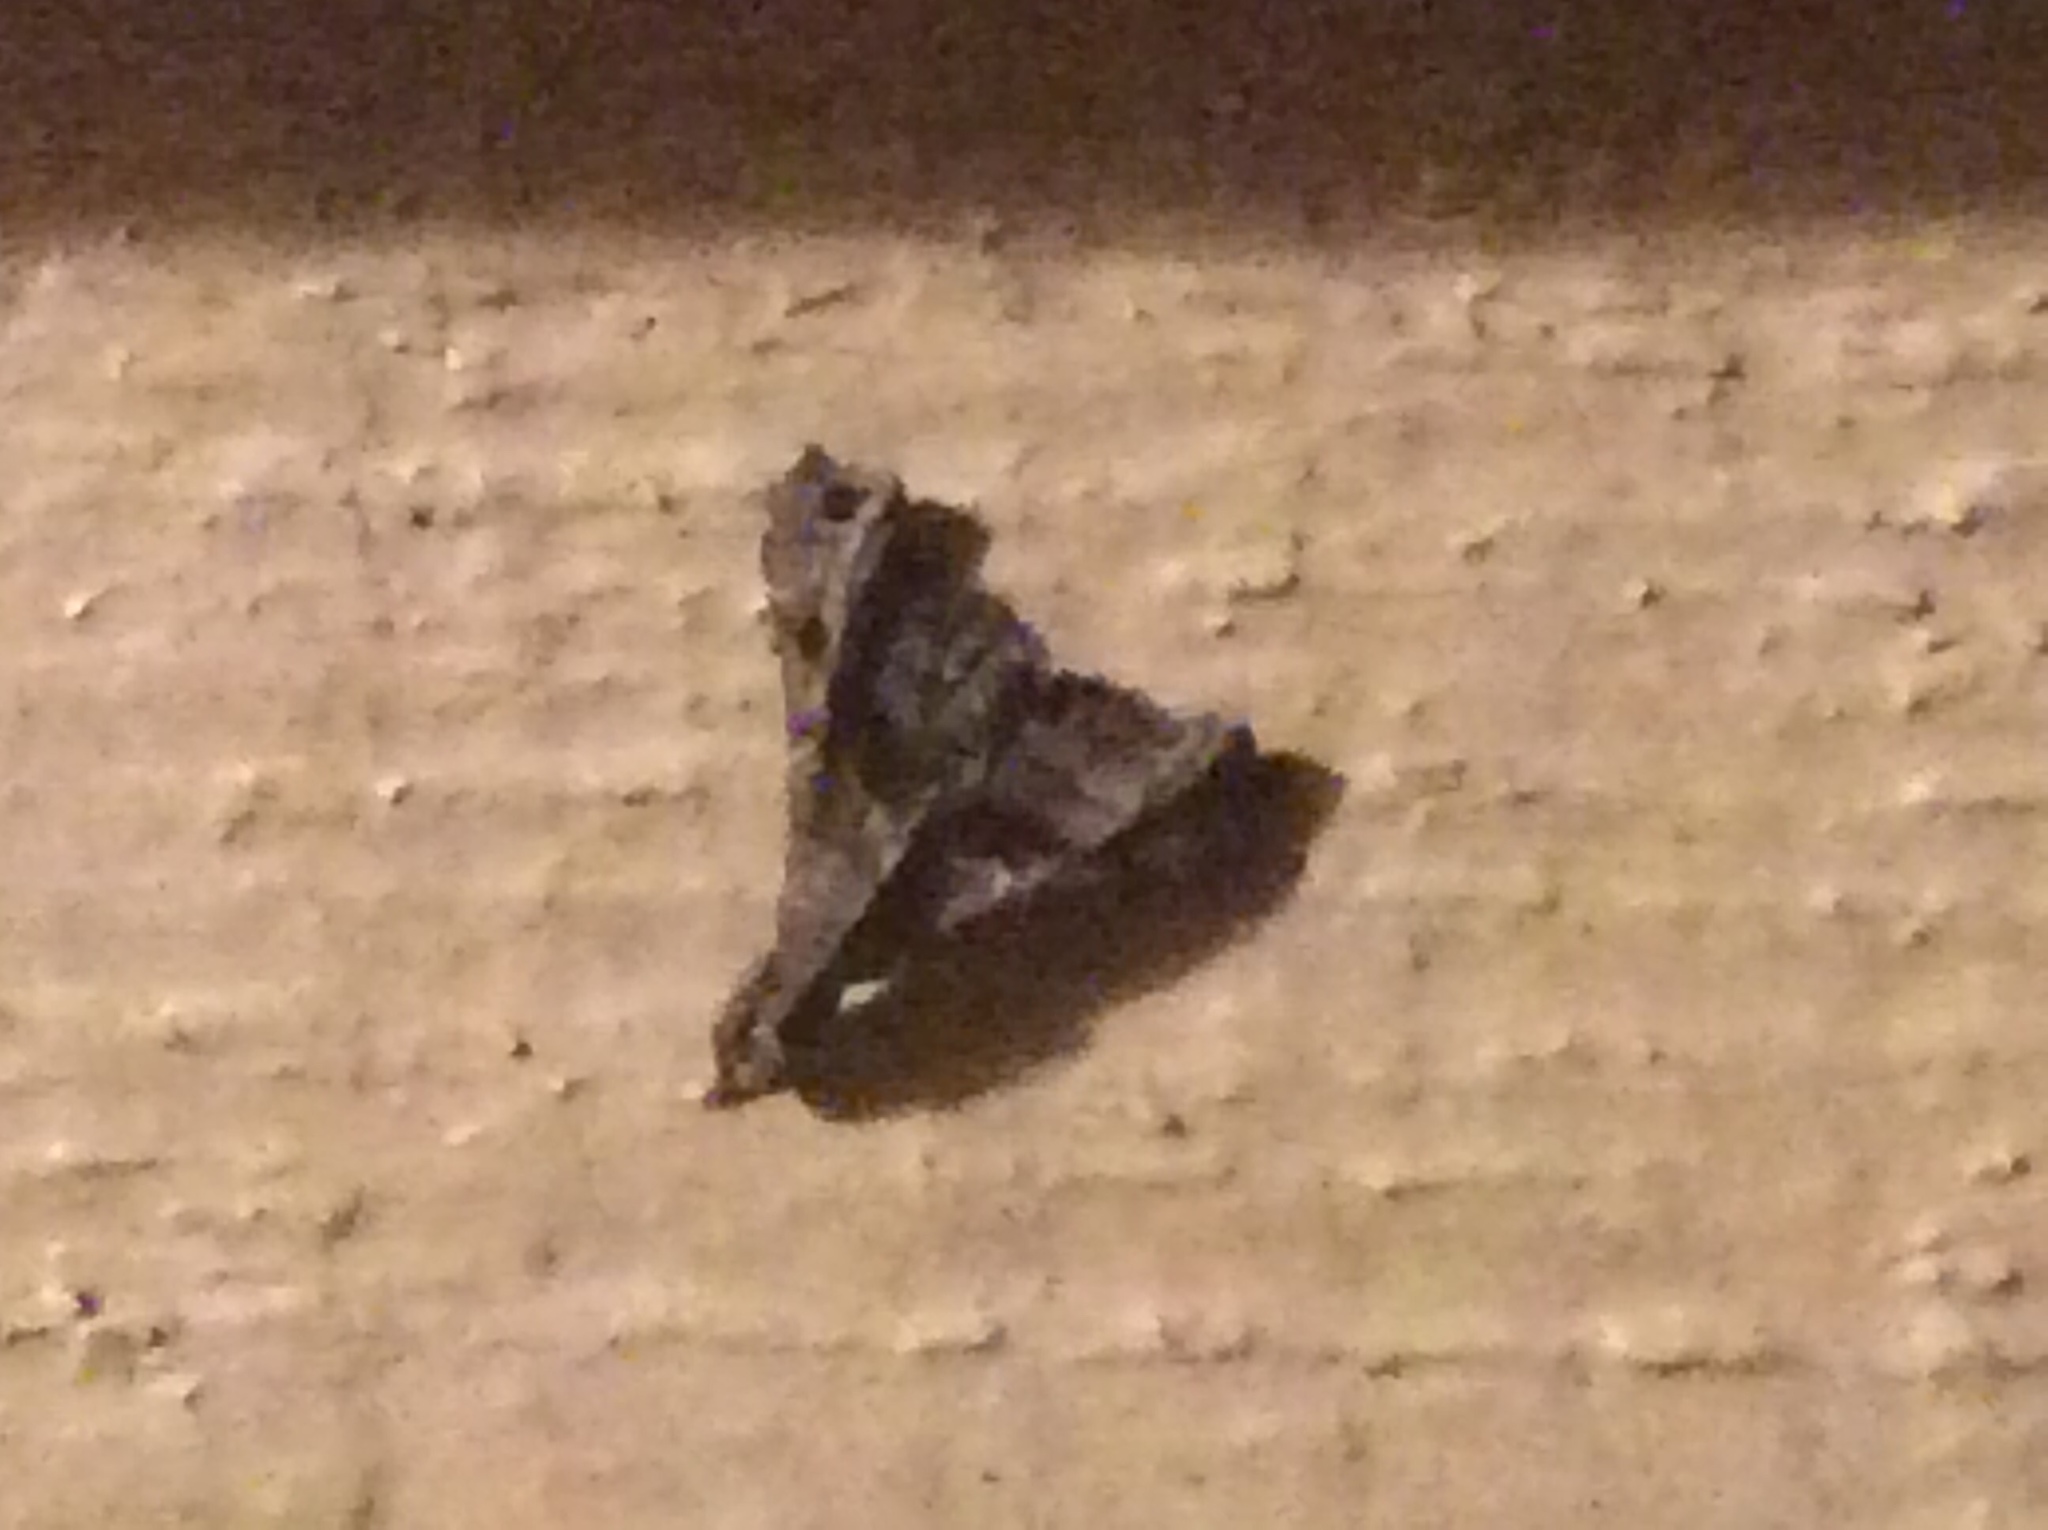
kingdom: Animalia
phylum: Arthropoda
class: Insecta
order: Lepidoptera
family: Erebidae
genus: Palthis
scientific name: Palthis asopialis
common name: Faint-spotted palthis moth
